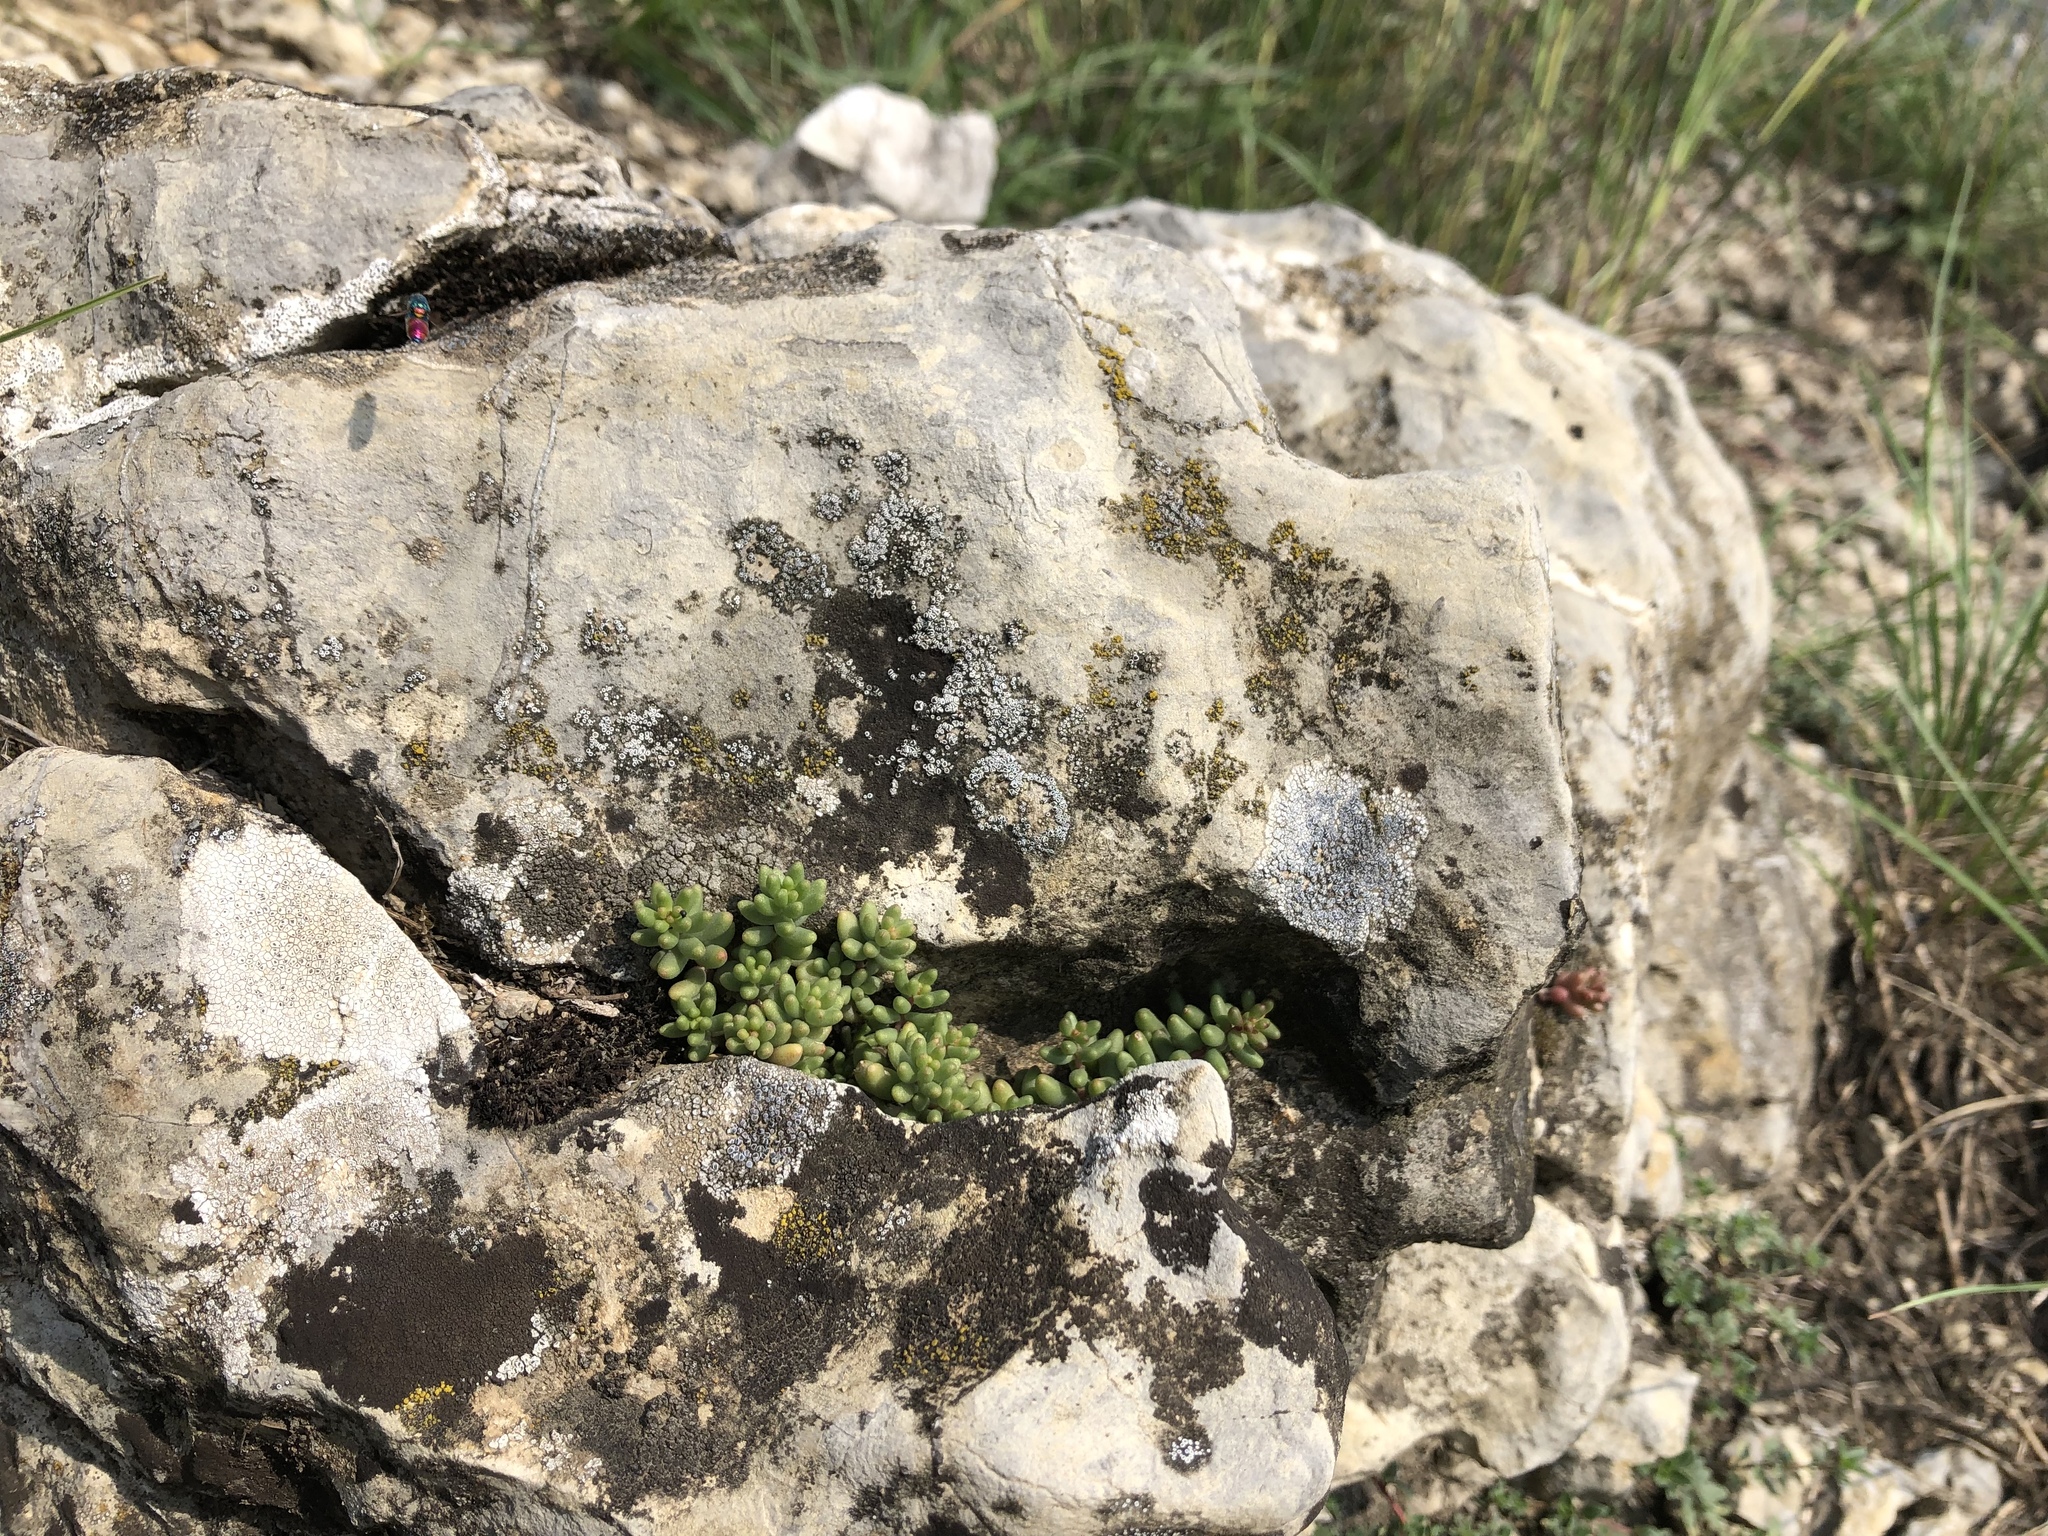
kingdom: Plantae
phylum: Tracheophyta
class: Magnoliopsida
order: Saxifragales
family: Crassulaceae
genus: Sedum
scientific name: Sedum album
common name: White stonecrop
